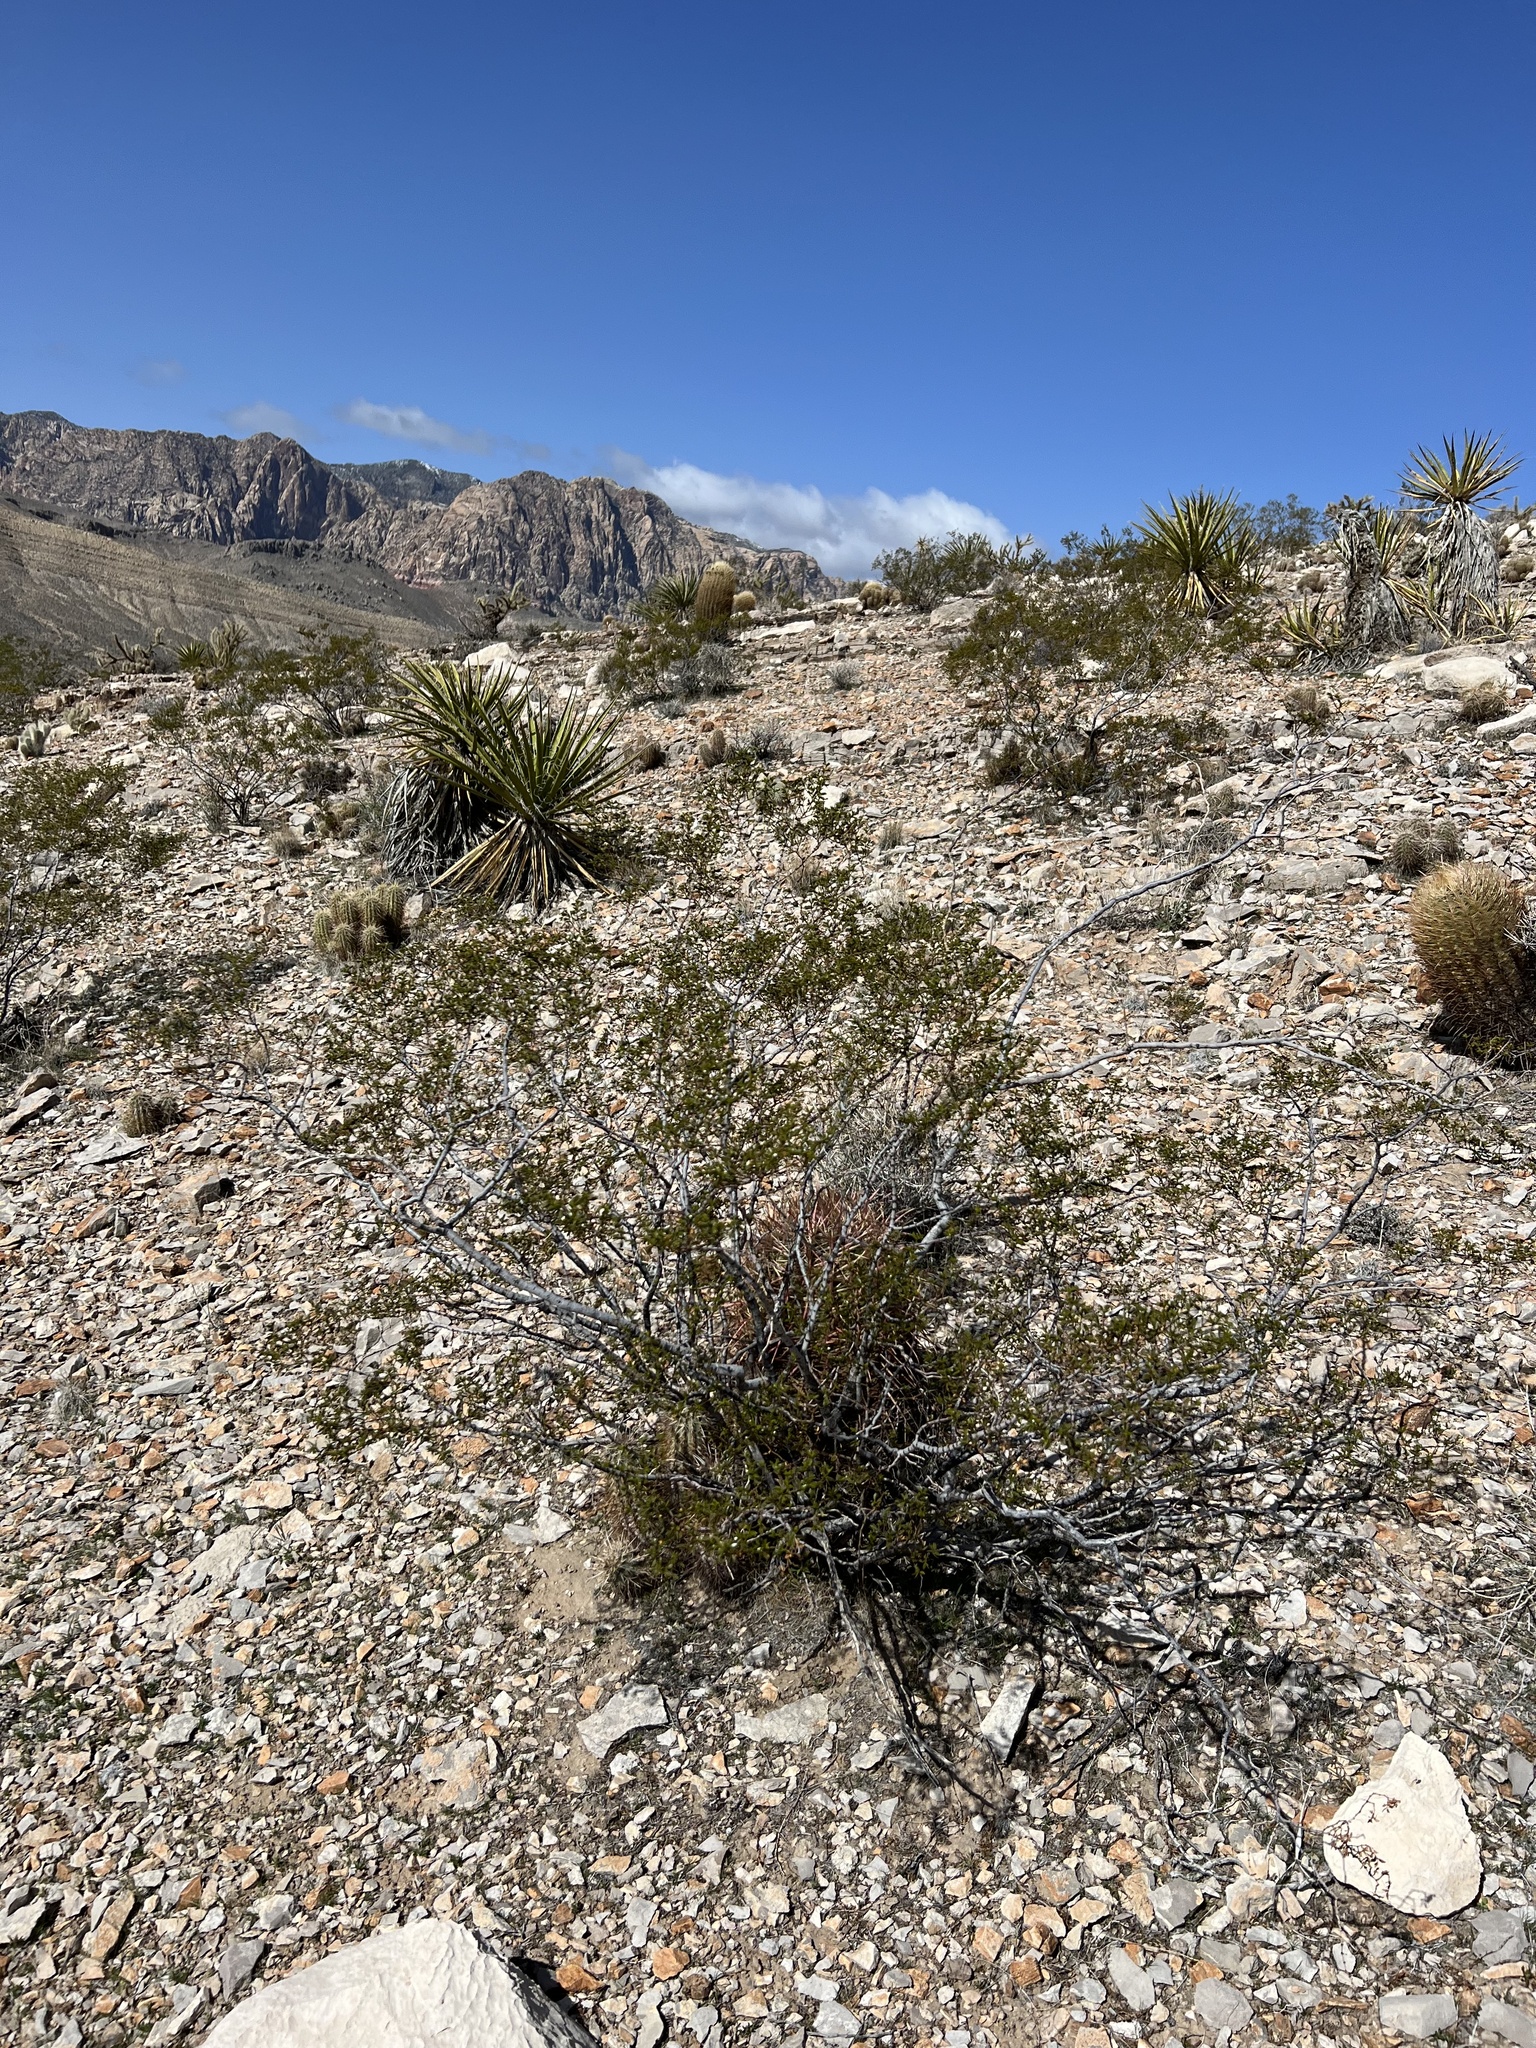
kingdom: Plantae
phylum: Tracheophyta
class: Magnoliopsida
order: Zygophyllales
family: Zygophyllaceae
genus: Larrea
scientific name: Larrea tridentata
